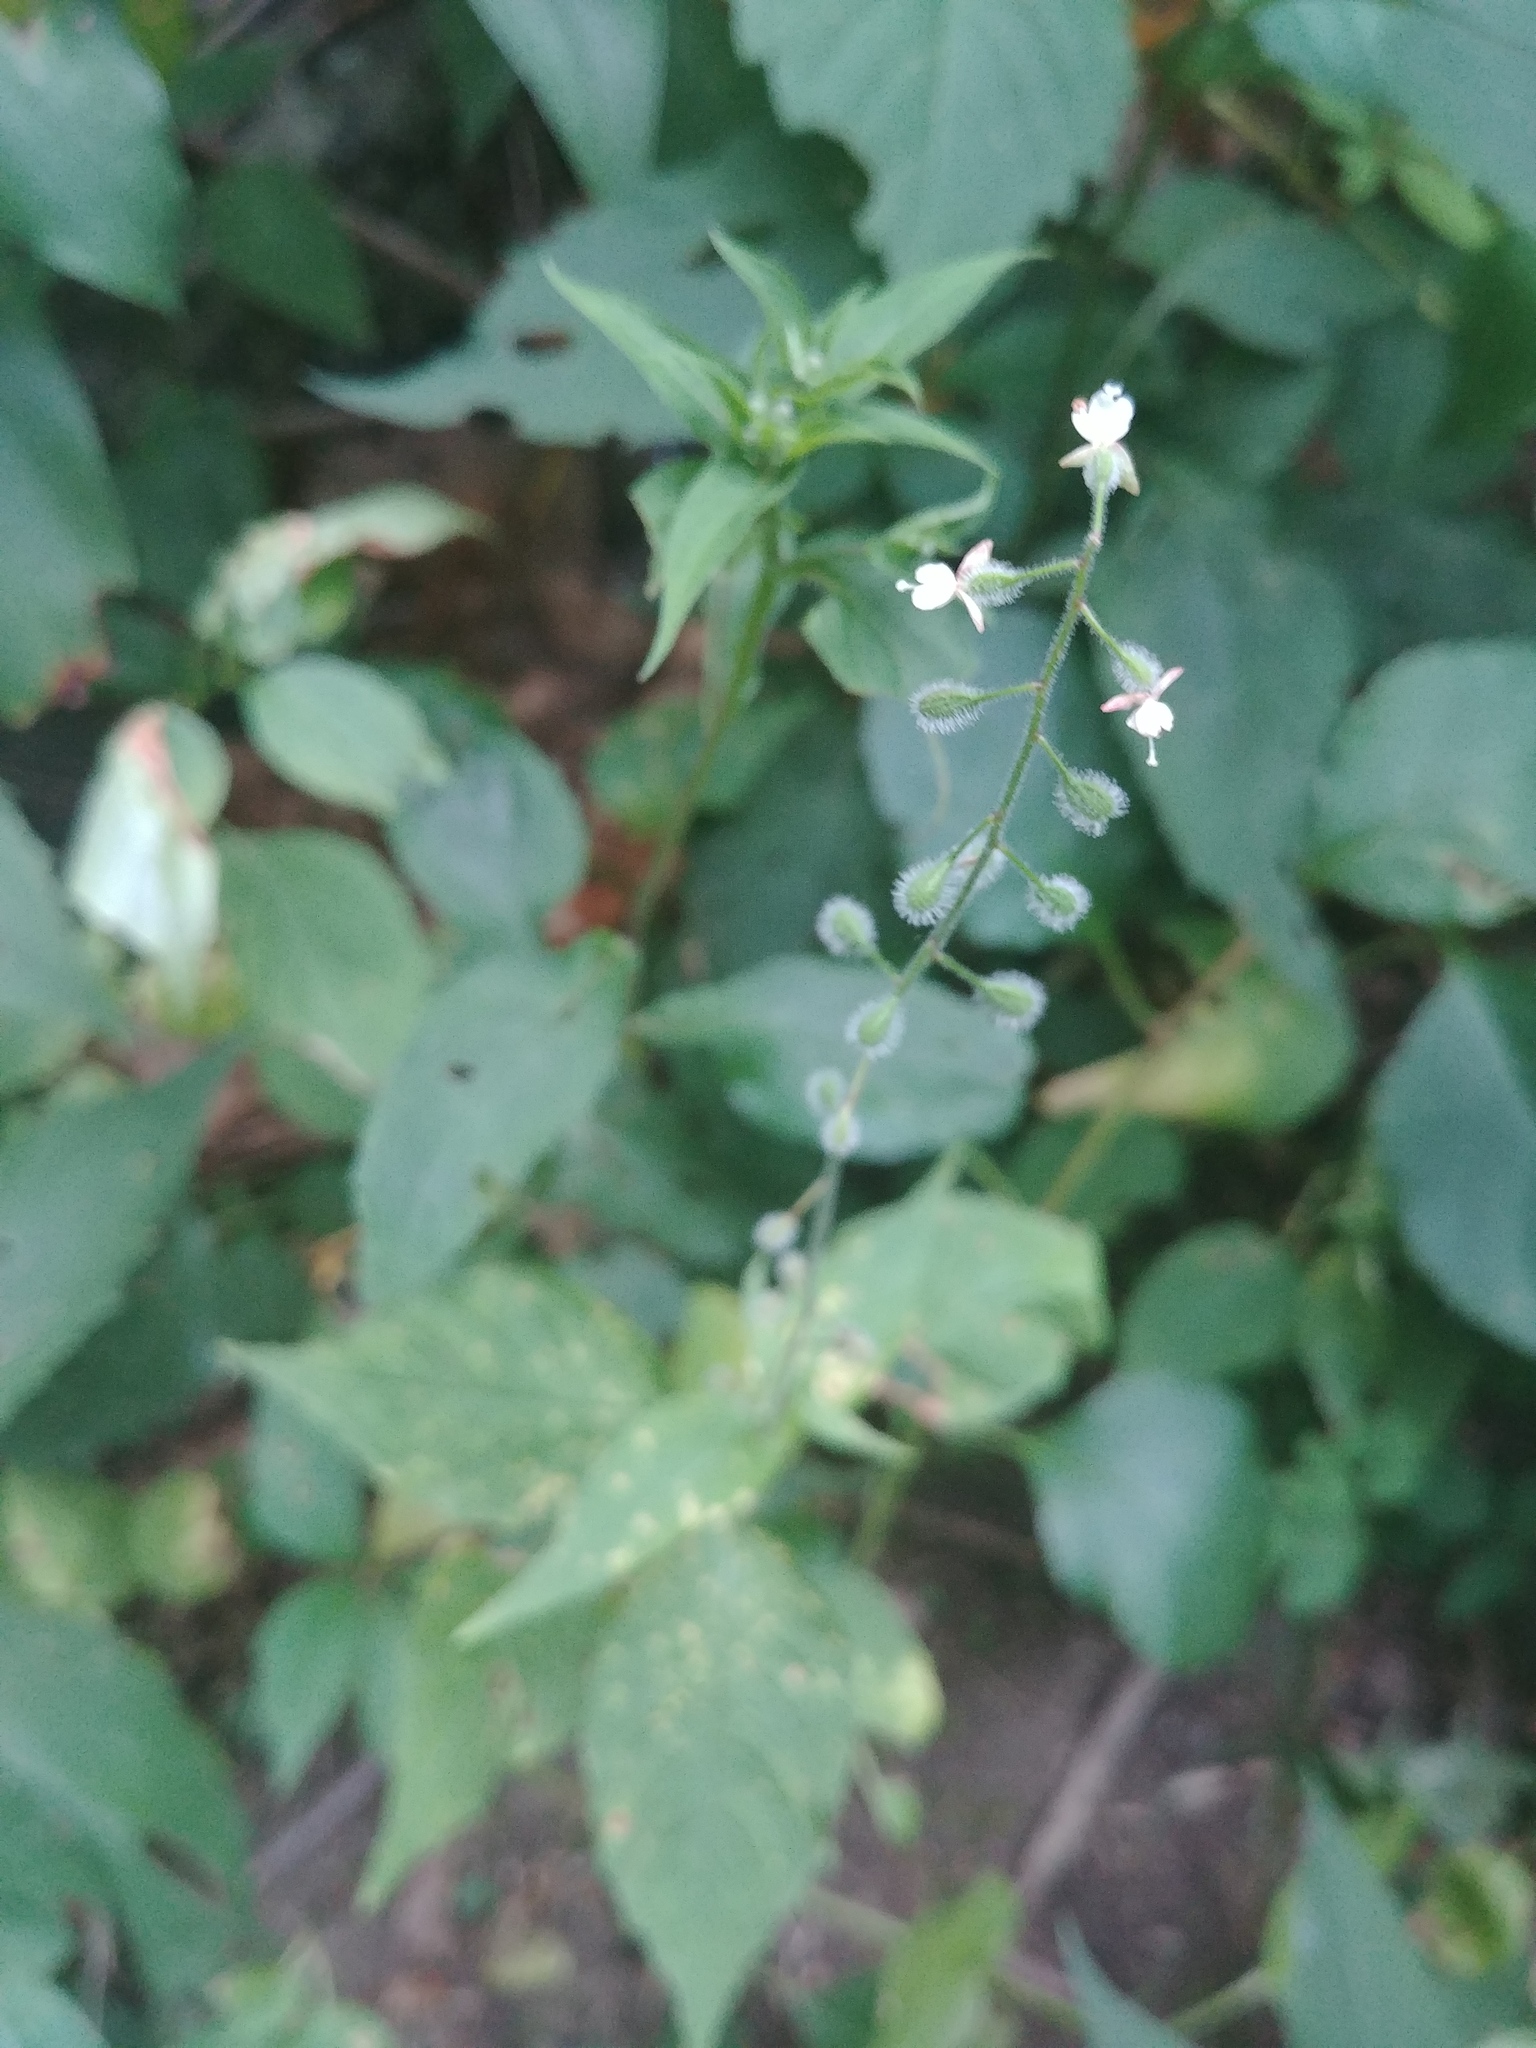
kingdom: Plantae
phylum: Tracheophyta
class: Magnoliopsida
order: Myrtales
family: Onagraceae
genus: Circaea
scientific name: Circaea canadensis
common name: Broad-leaved enchanter's nightshade
